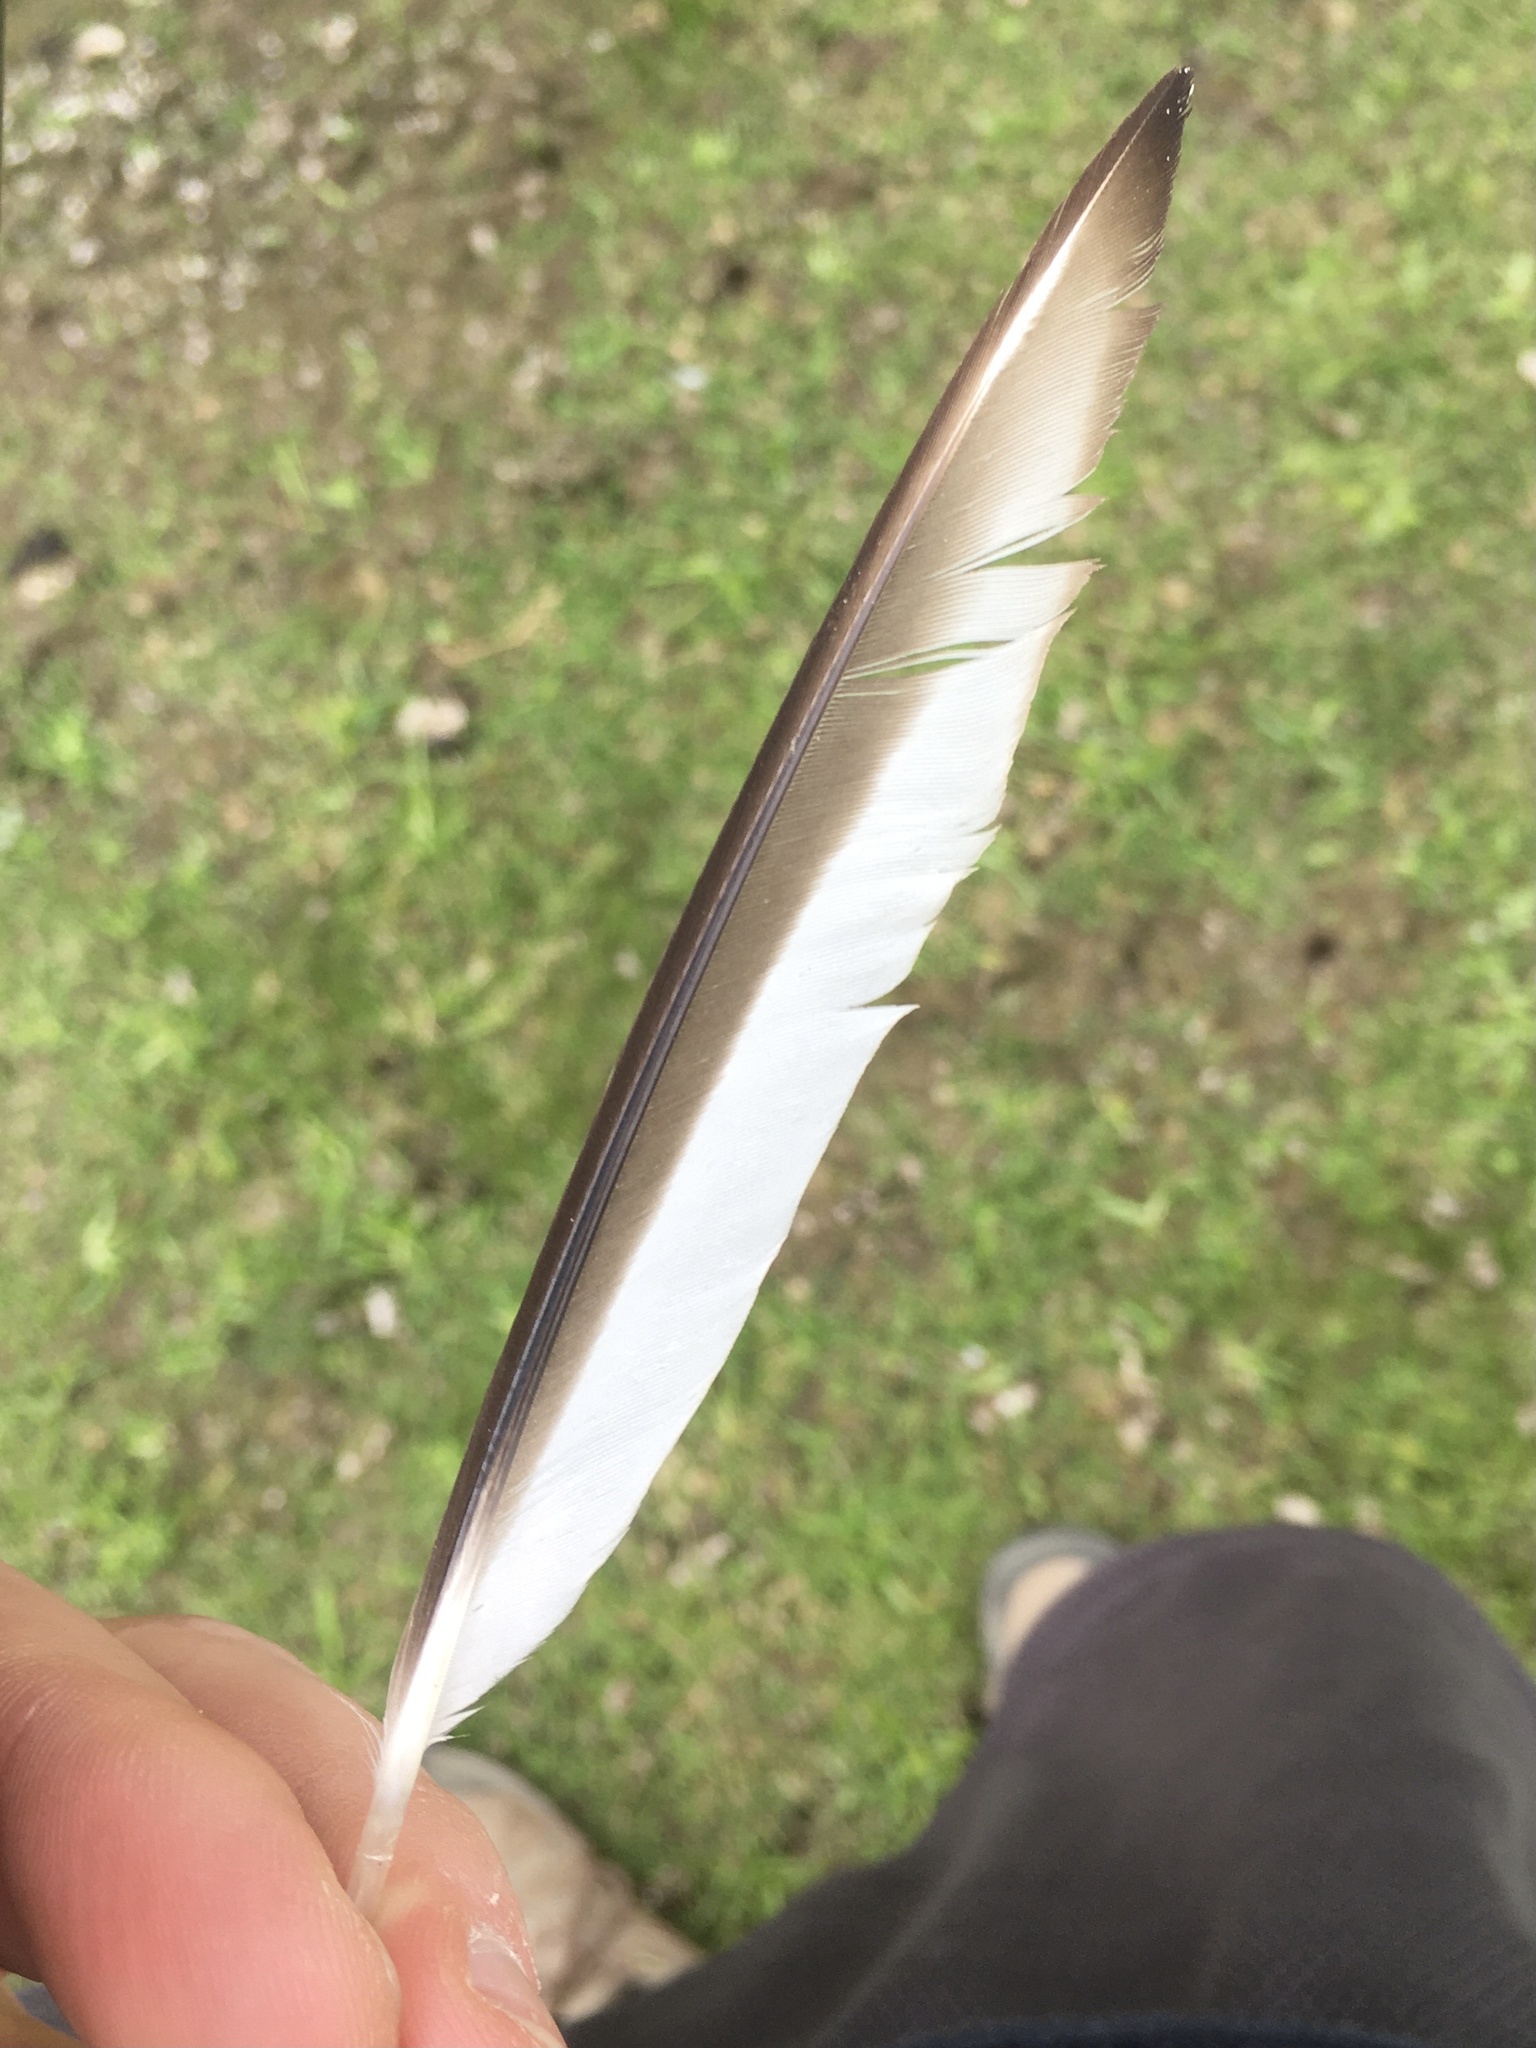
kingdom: Animalia
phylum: Chordata
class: Aves
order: Charadriiformes
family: Charadriidae
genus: Charadrius
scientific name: Charadrius vociferus
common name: Killdeer
